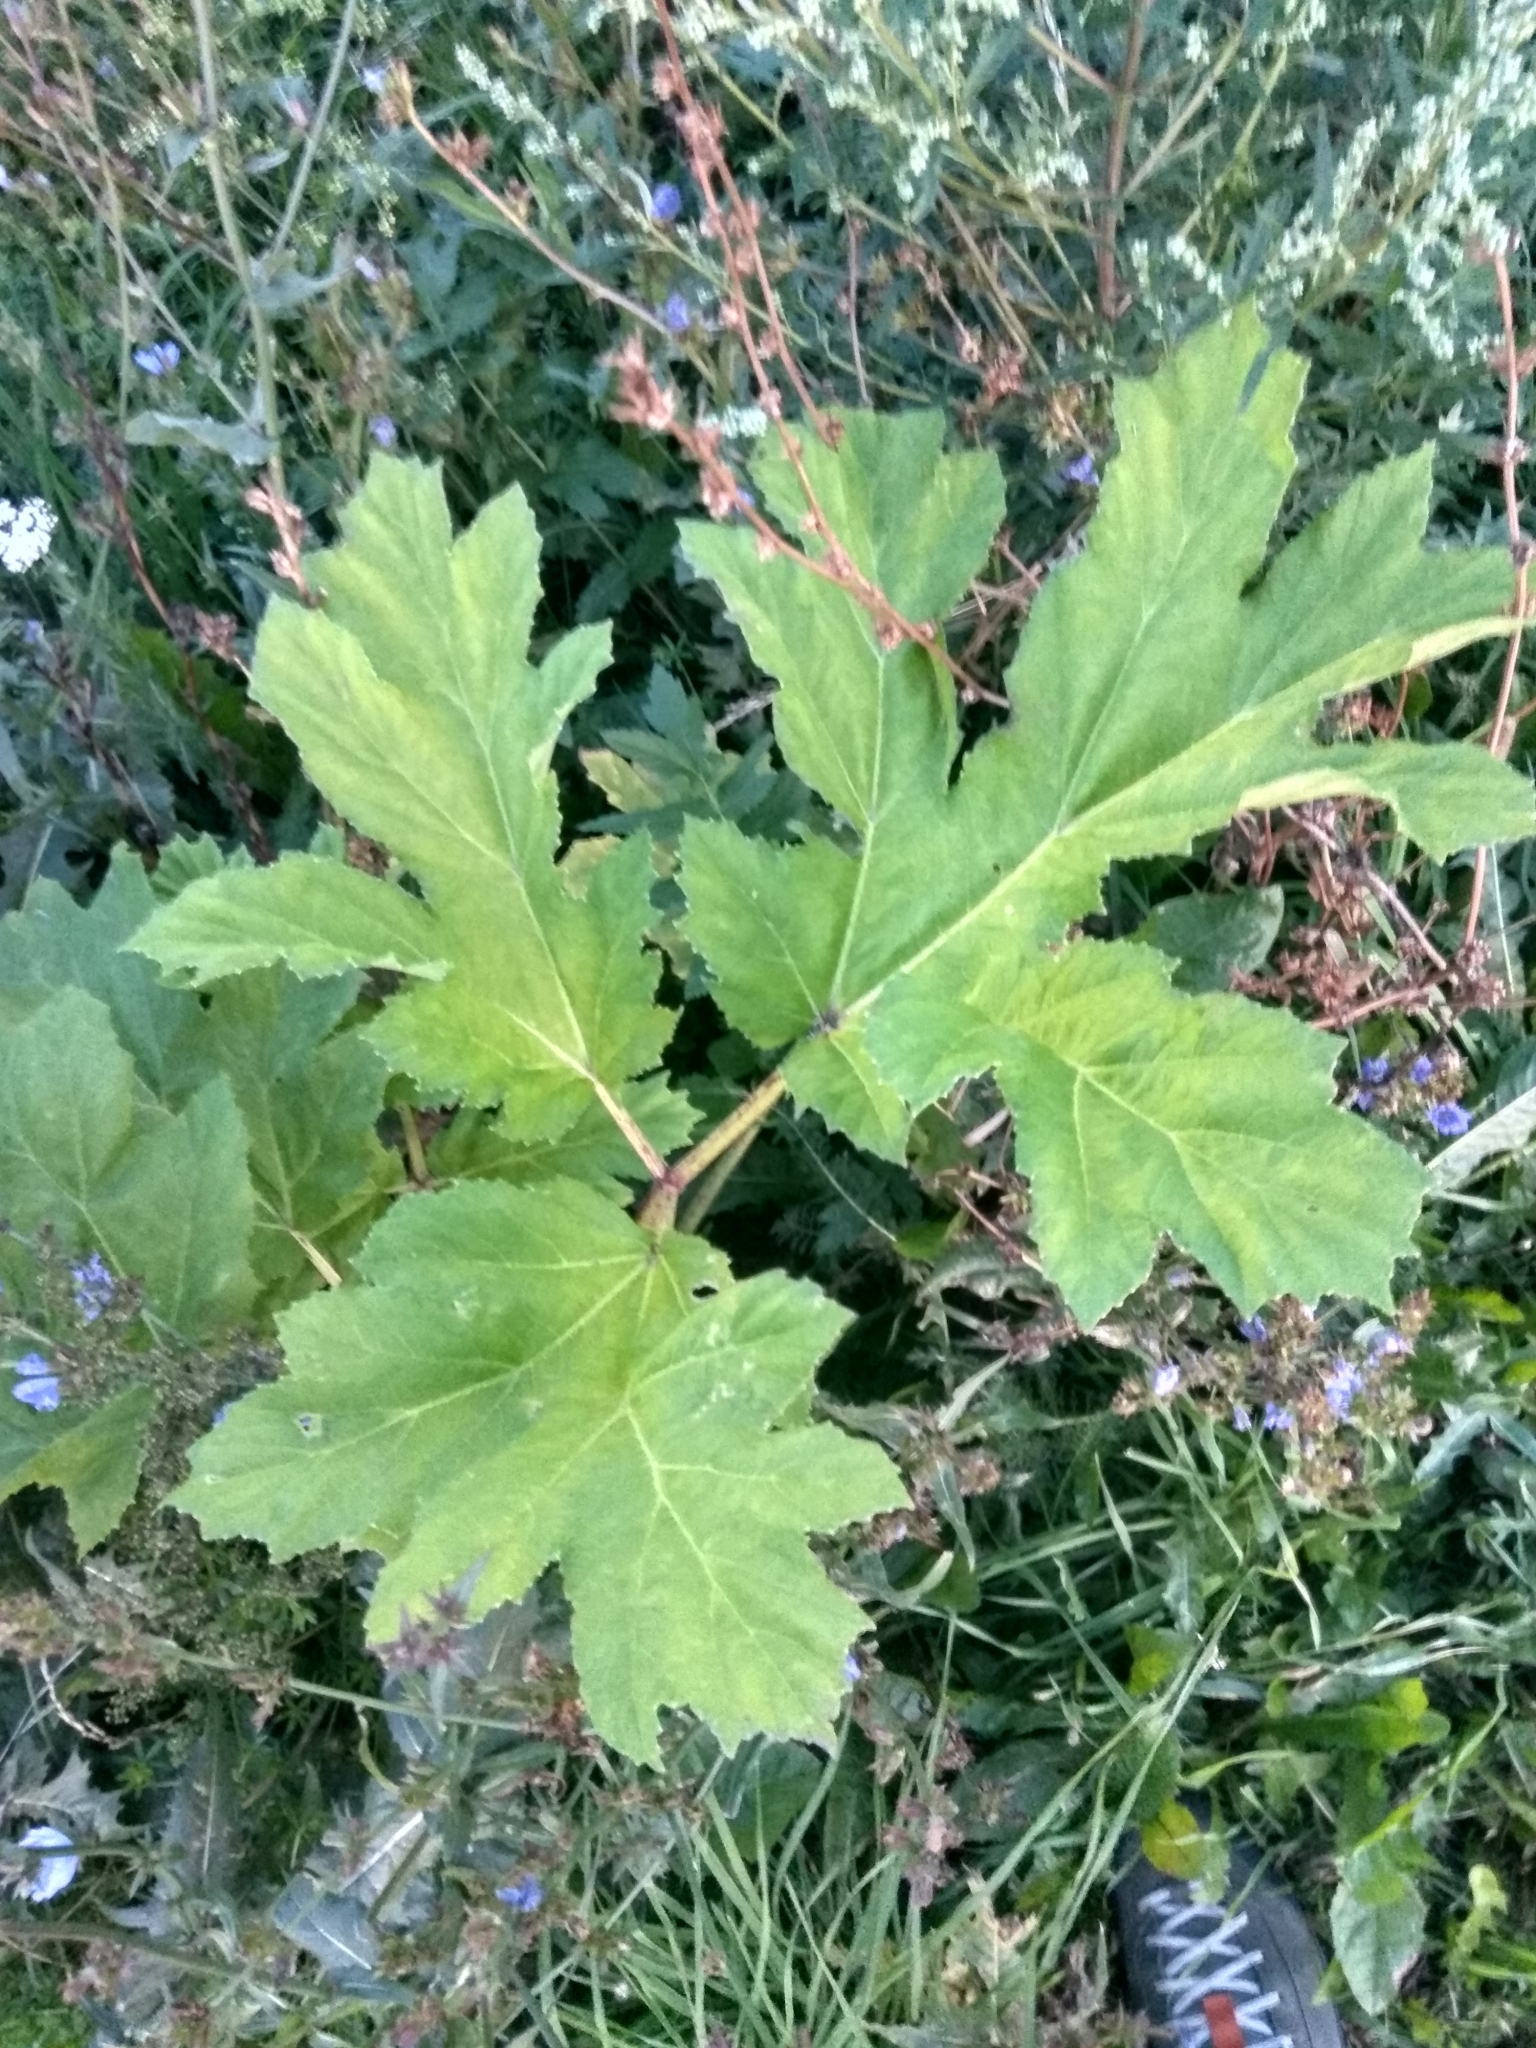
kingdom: Plantae
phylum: Tracheophyta
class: Magnoliopsida
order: Apiales
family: Apiaceae
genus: Heracleum
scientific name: Heracleum sosnowskyi
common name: Sosnowsky's hogweed
